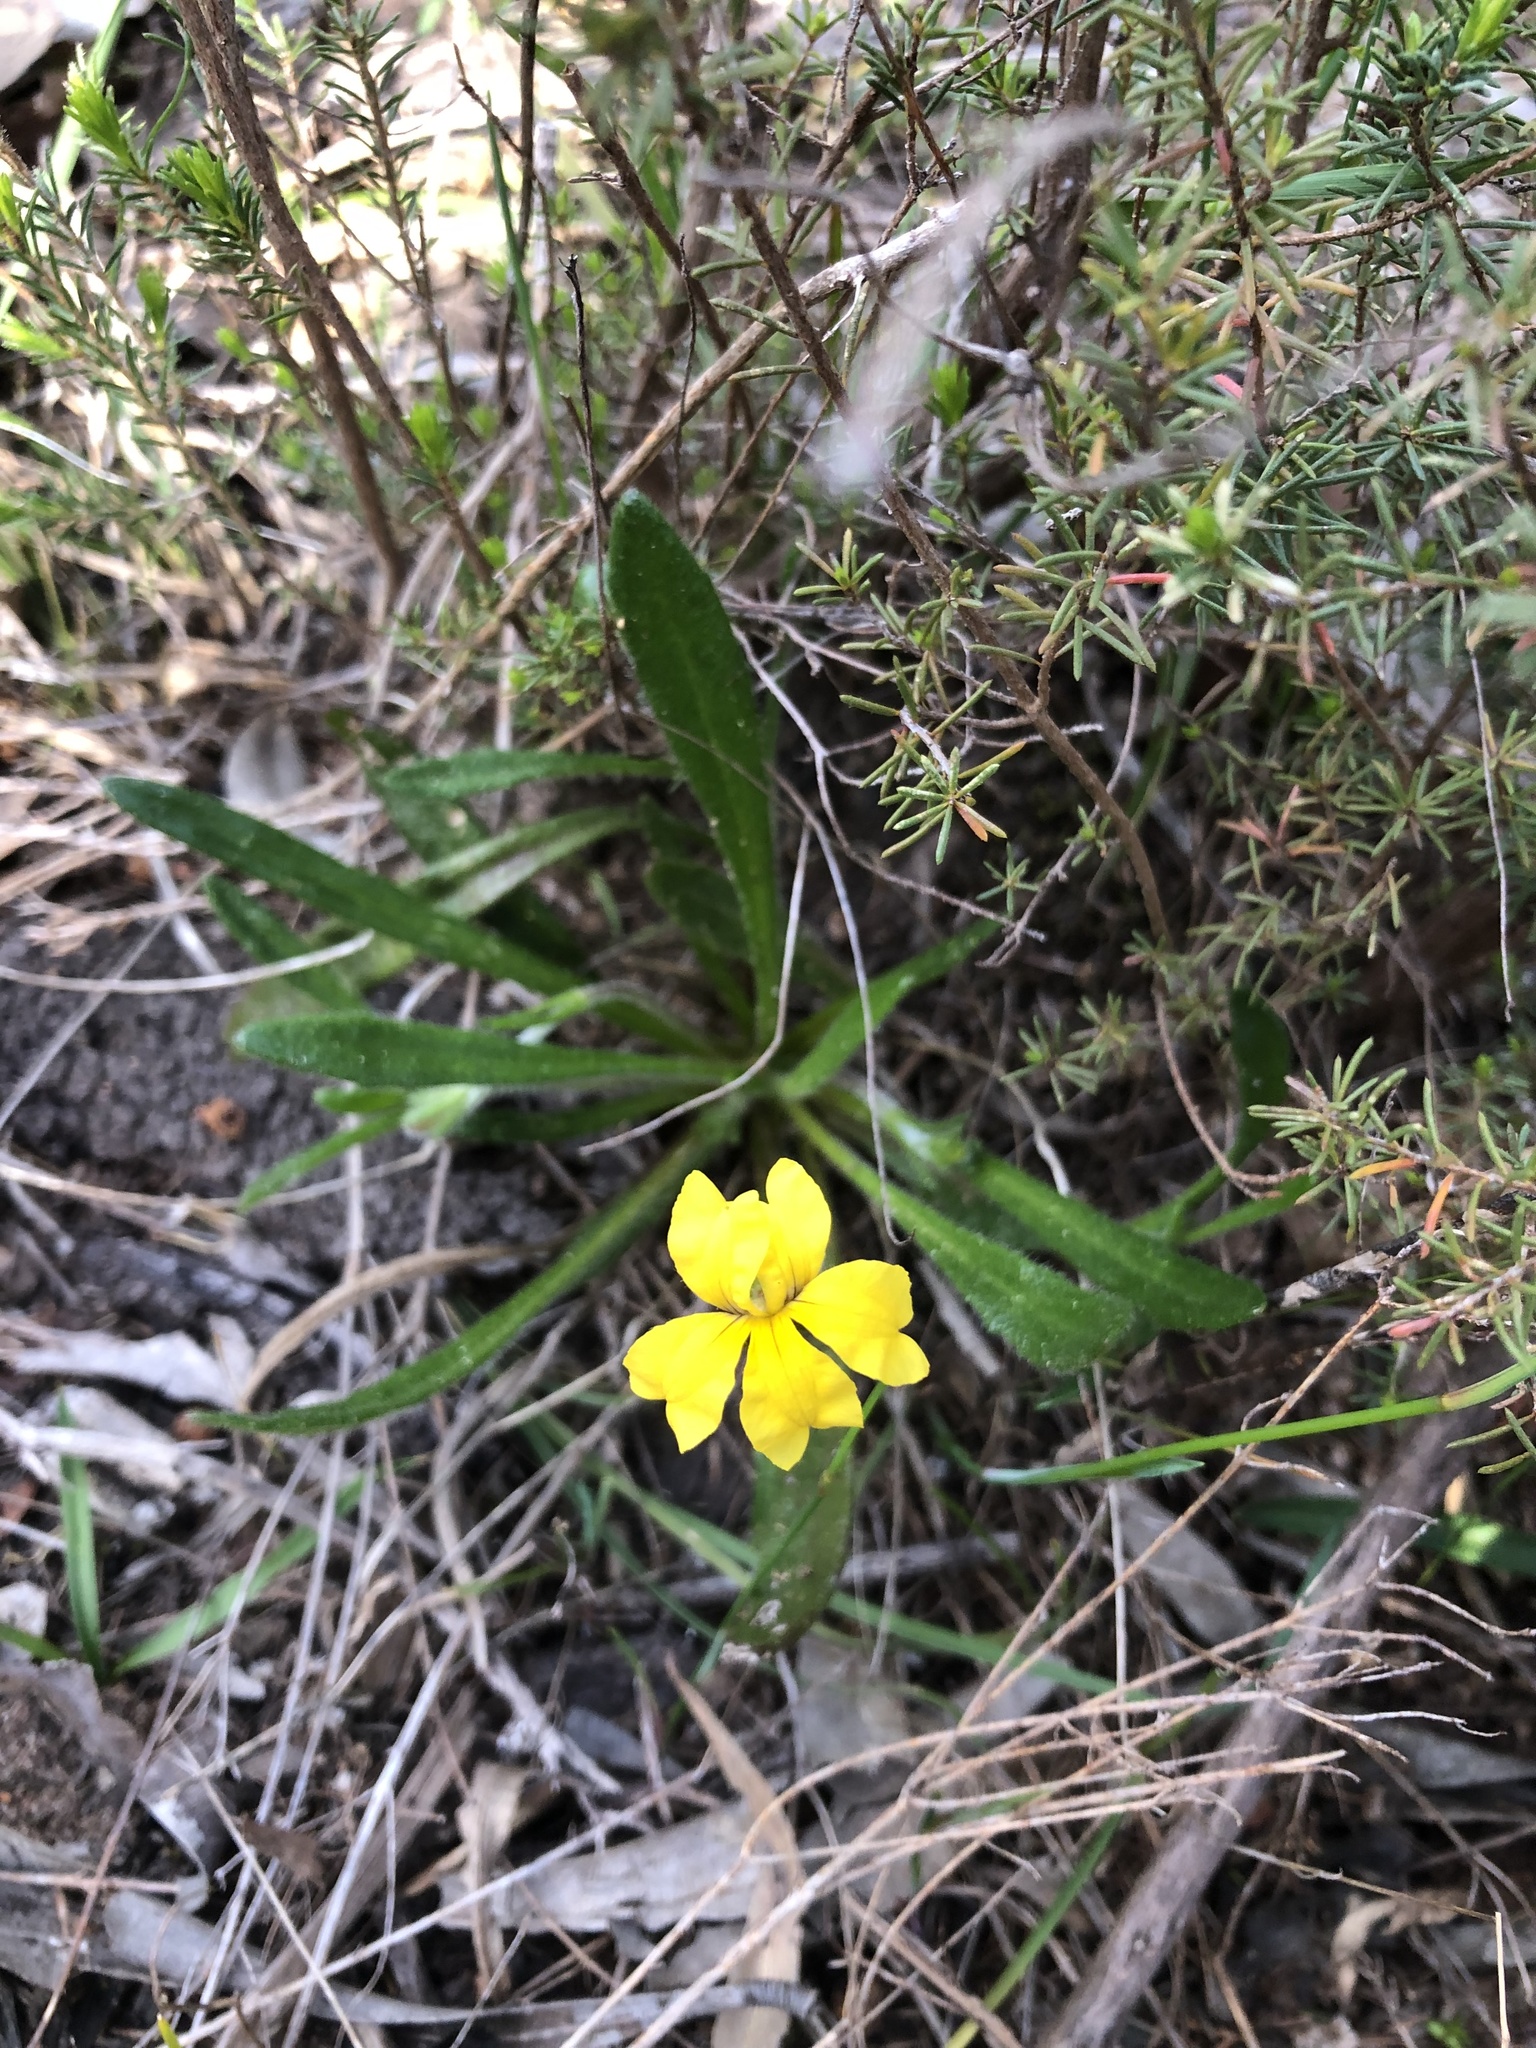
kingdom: Plantae
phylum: Tracheophyta
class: Magnoliopsida
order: Asterales
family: Goodeniaceae
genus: Goodenia
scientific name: Goodenia geniculata
